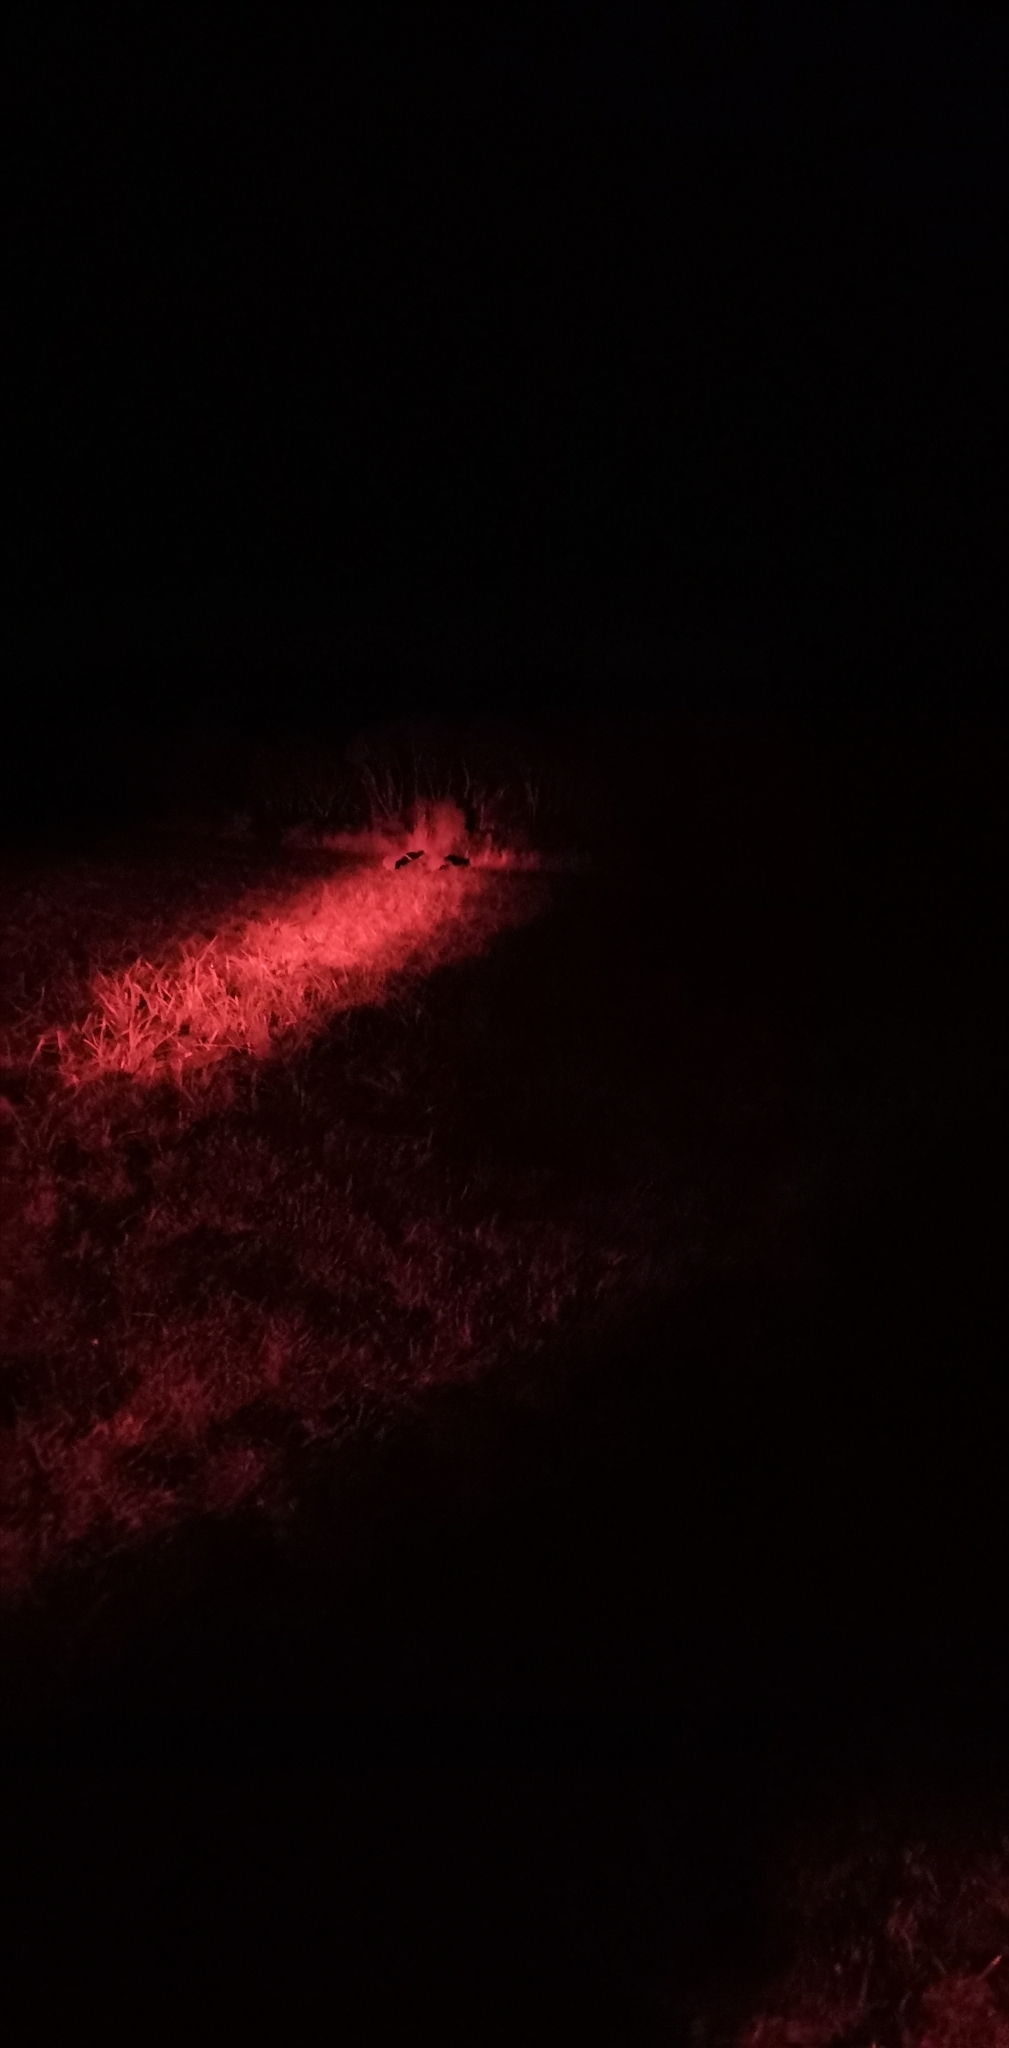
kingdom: Animalia
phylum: Chordata
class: Aves
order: Apterygiformes
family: Apterygidae
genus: Apteryx
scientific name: Apteryx australis
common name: Southern brown kiwi
